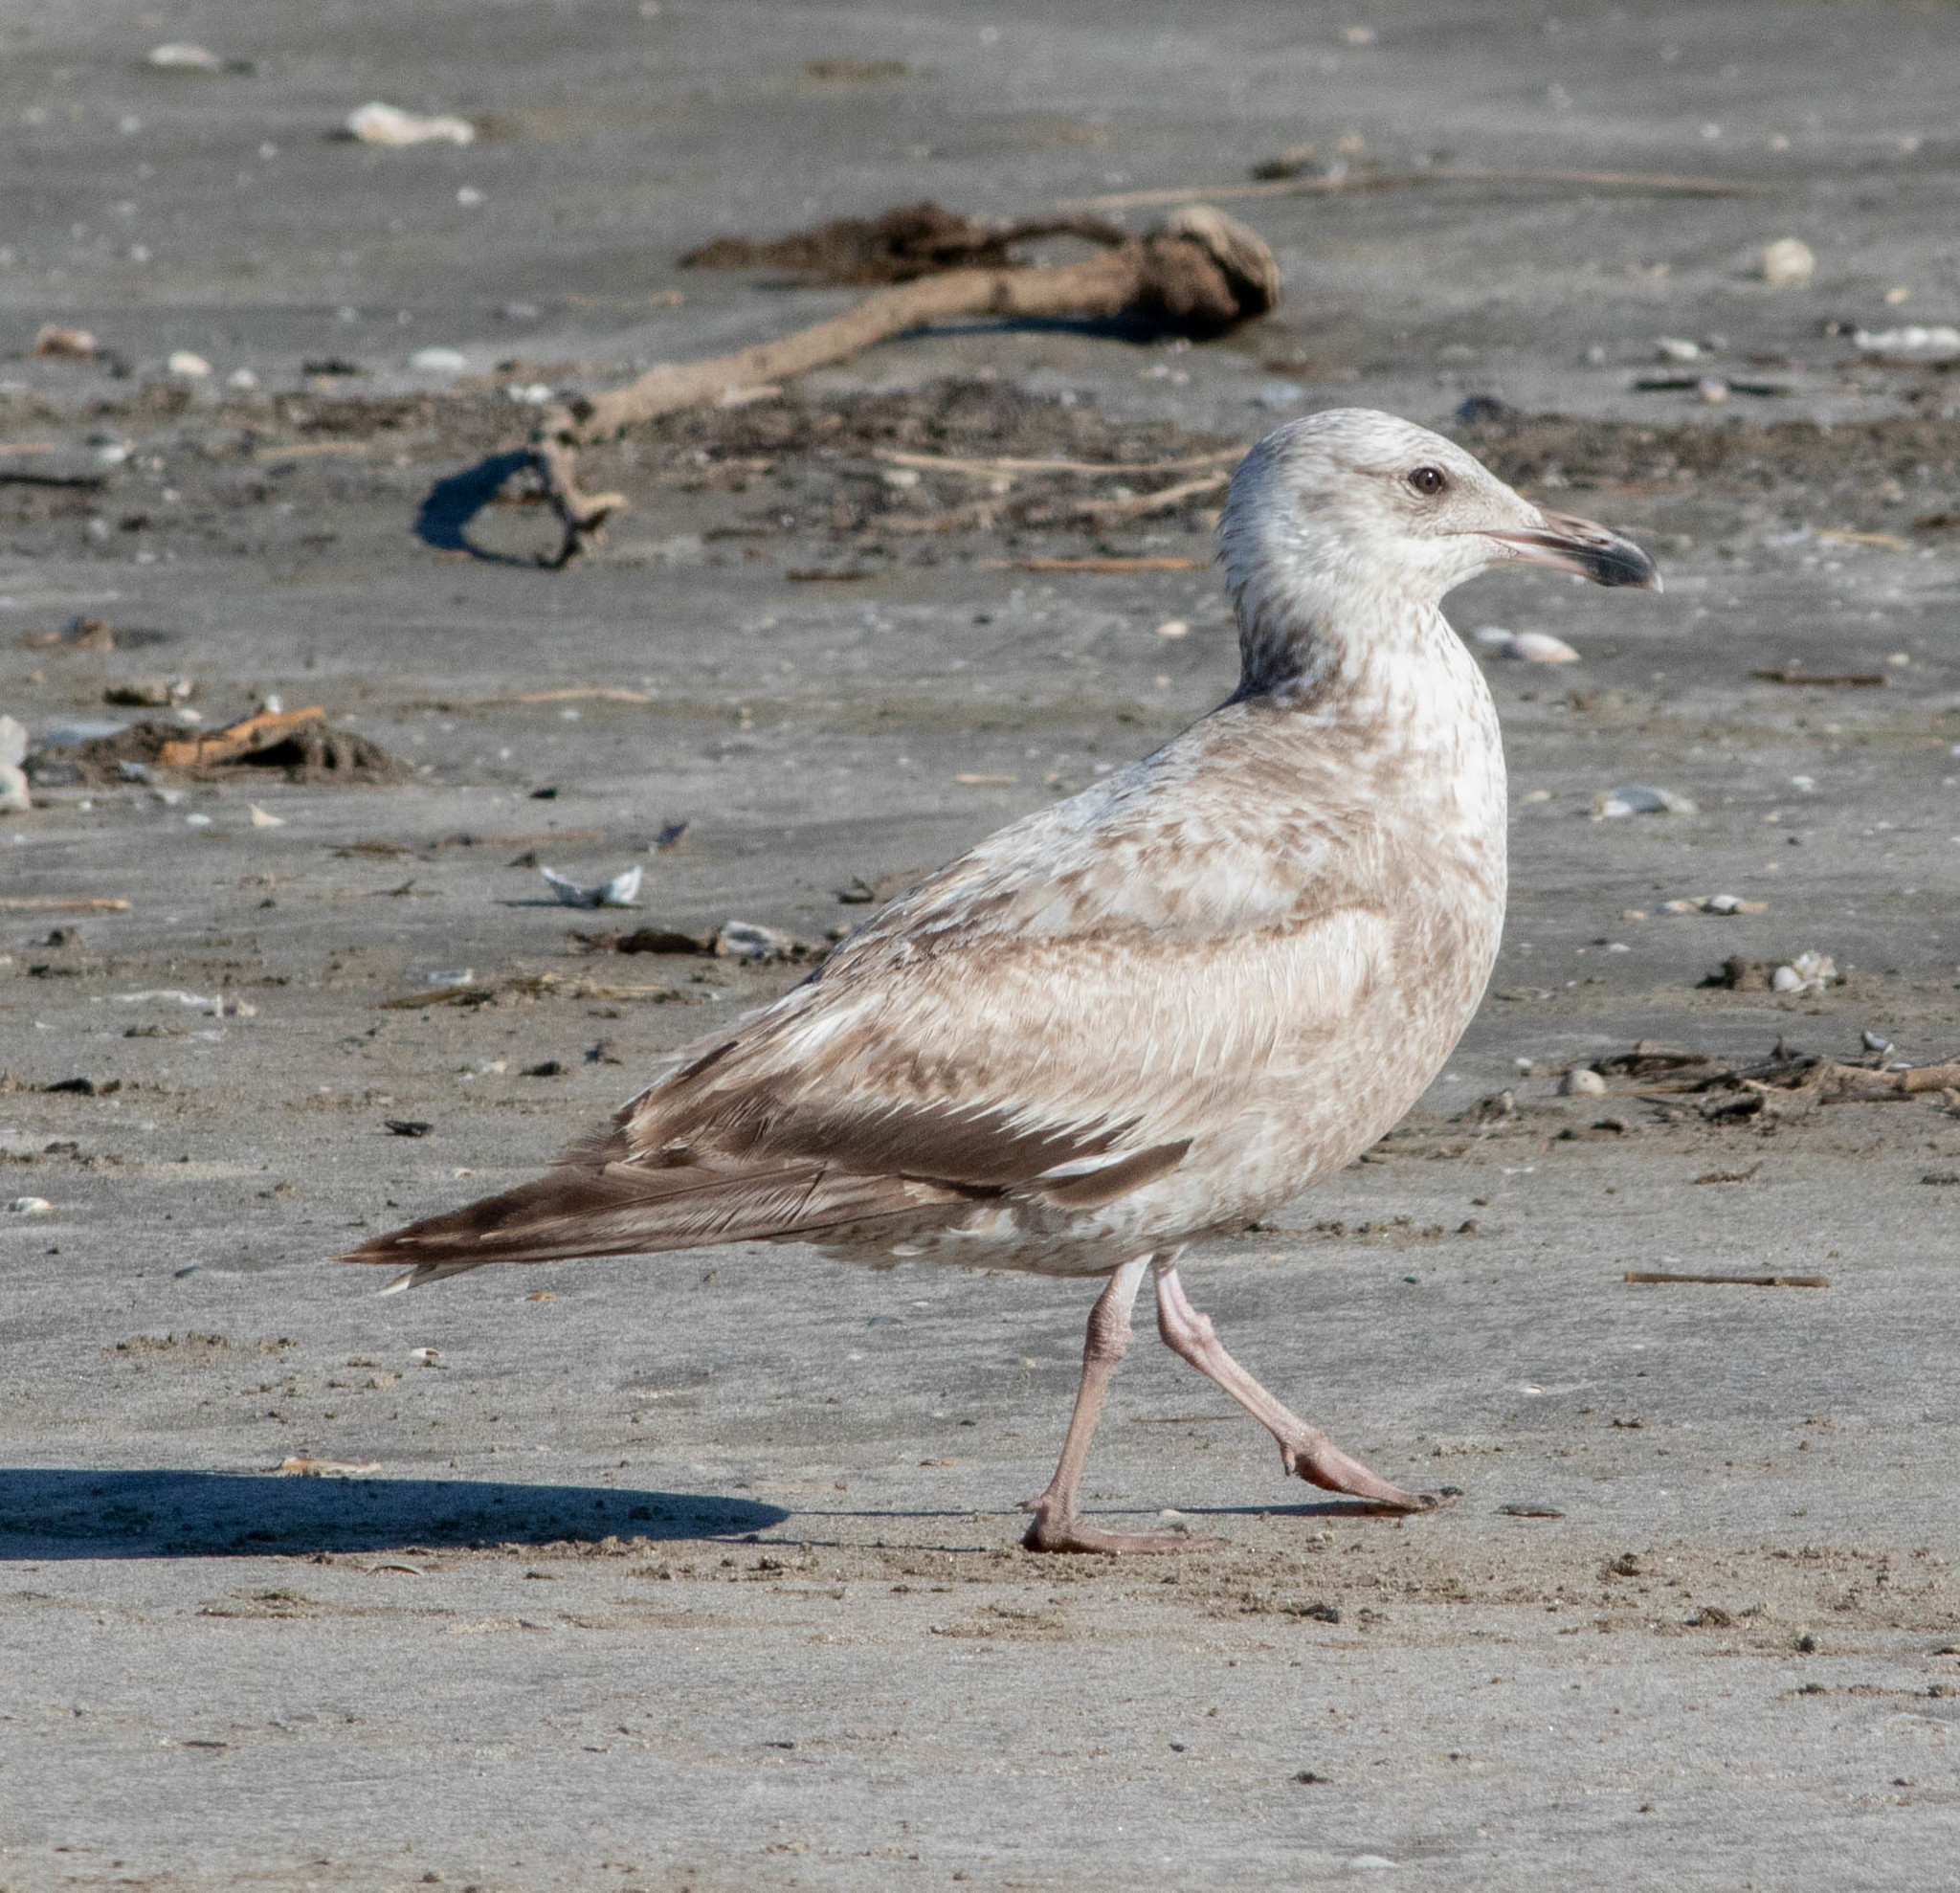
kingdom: Animalia
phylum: Chordata
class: Aves
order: Charadriiformes
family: Laridae
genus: Larus
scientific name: Larus argentatus
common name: Herring gull
